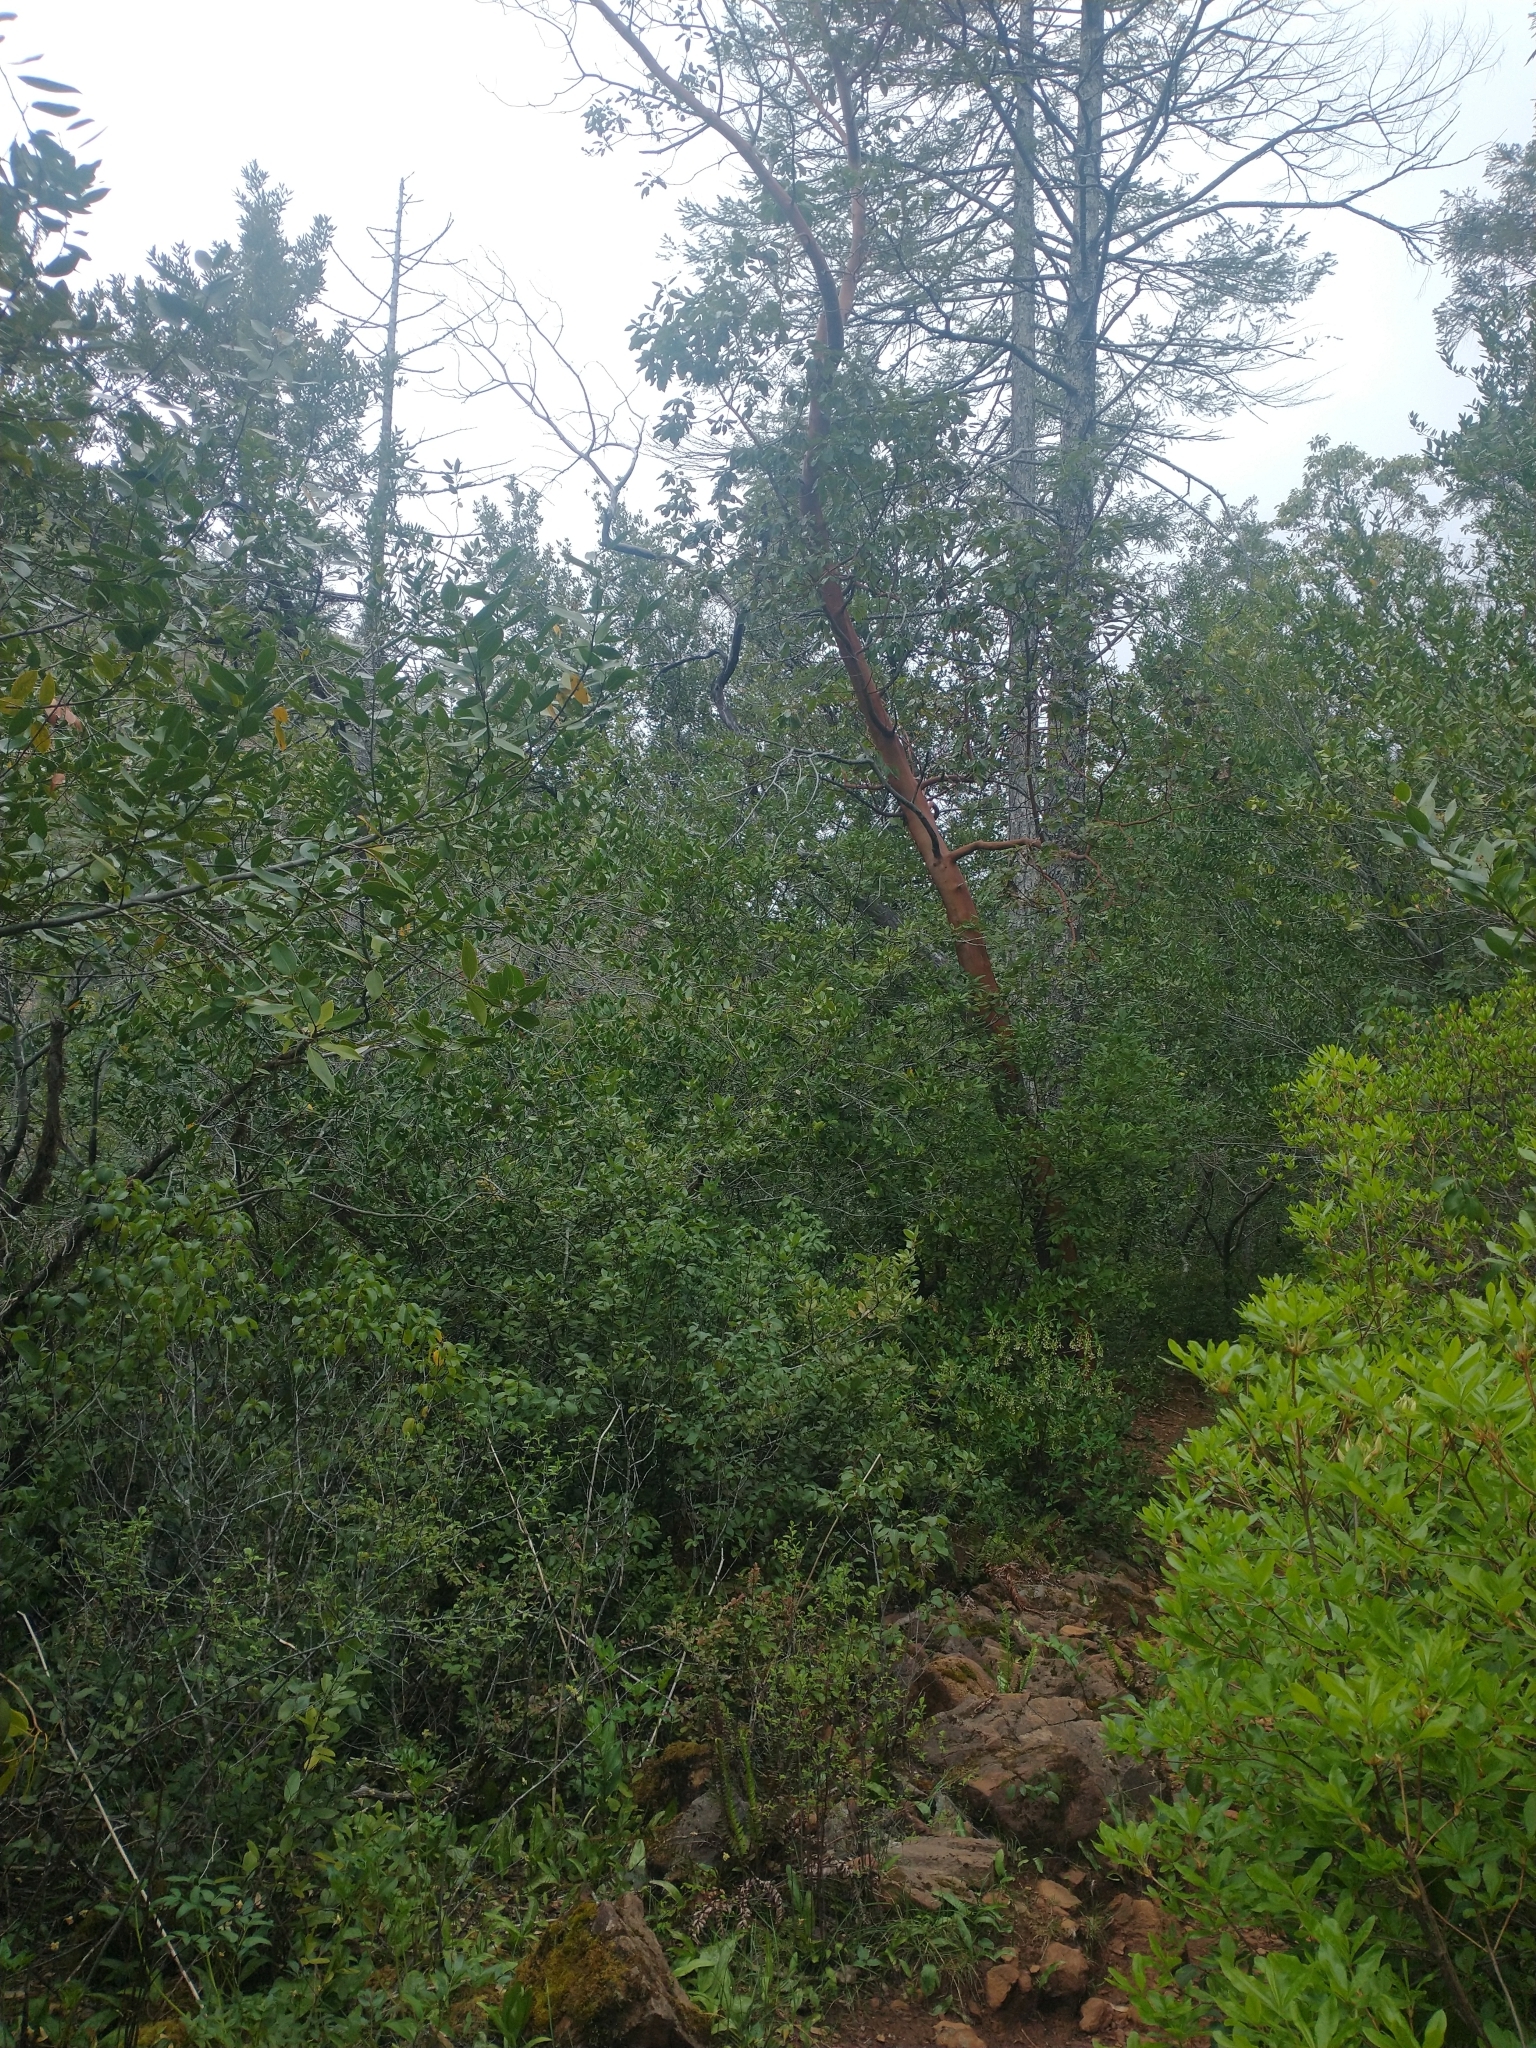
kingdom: Plantae
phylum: Tracheophyta
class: Magnoliopsida
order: Ericales
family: Ericaceae
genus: Arbutus
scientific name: Arbutus menziesii
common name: Pacific madrone
